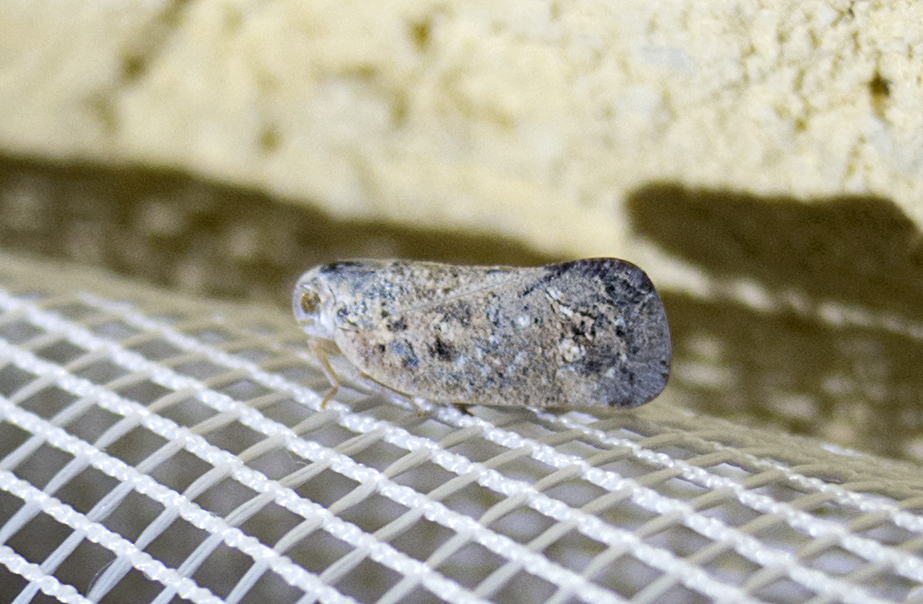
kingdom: Animalia
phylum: Arthropoda
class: Insecta
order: Hemiptera
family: Flatidae
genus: Metcalfa
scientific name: Metcalfa pruinosa
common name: Citrus flatid planthopper
